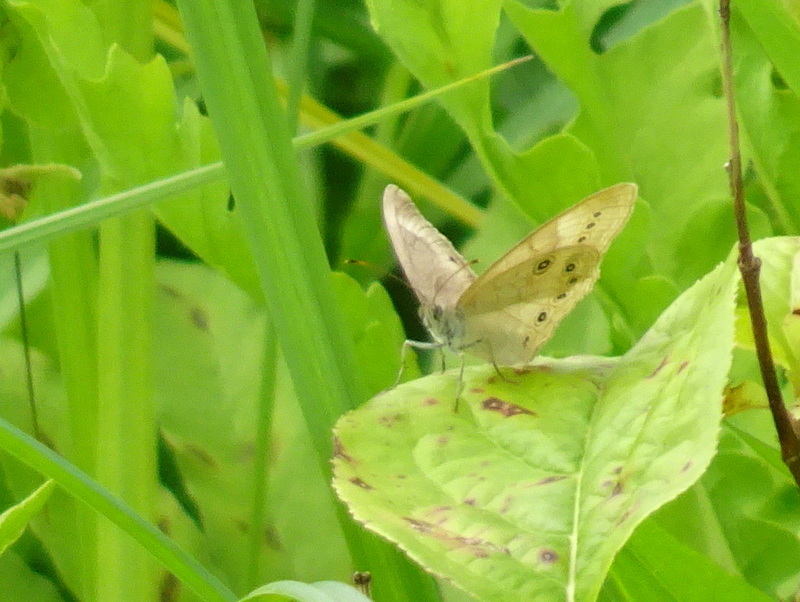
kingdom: Animalia
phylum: Arthropoda
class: Insecta
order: Lepidoptera
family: Nymphalidae
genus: Lethe
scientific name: Lethe eurydice
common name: Eyed brown
